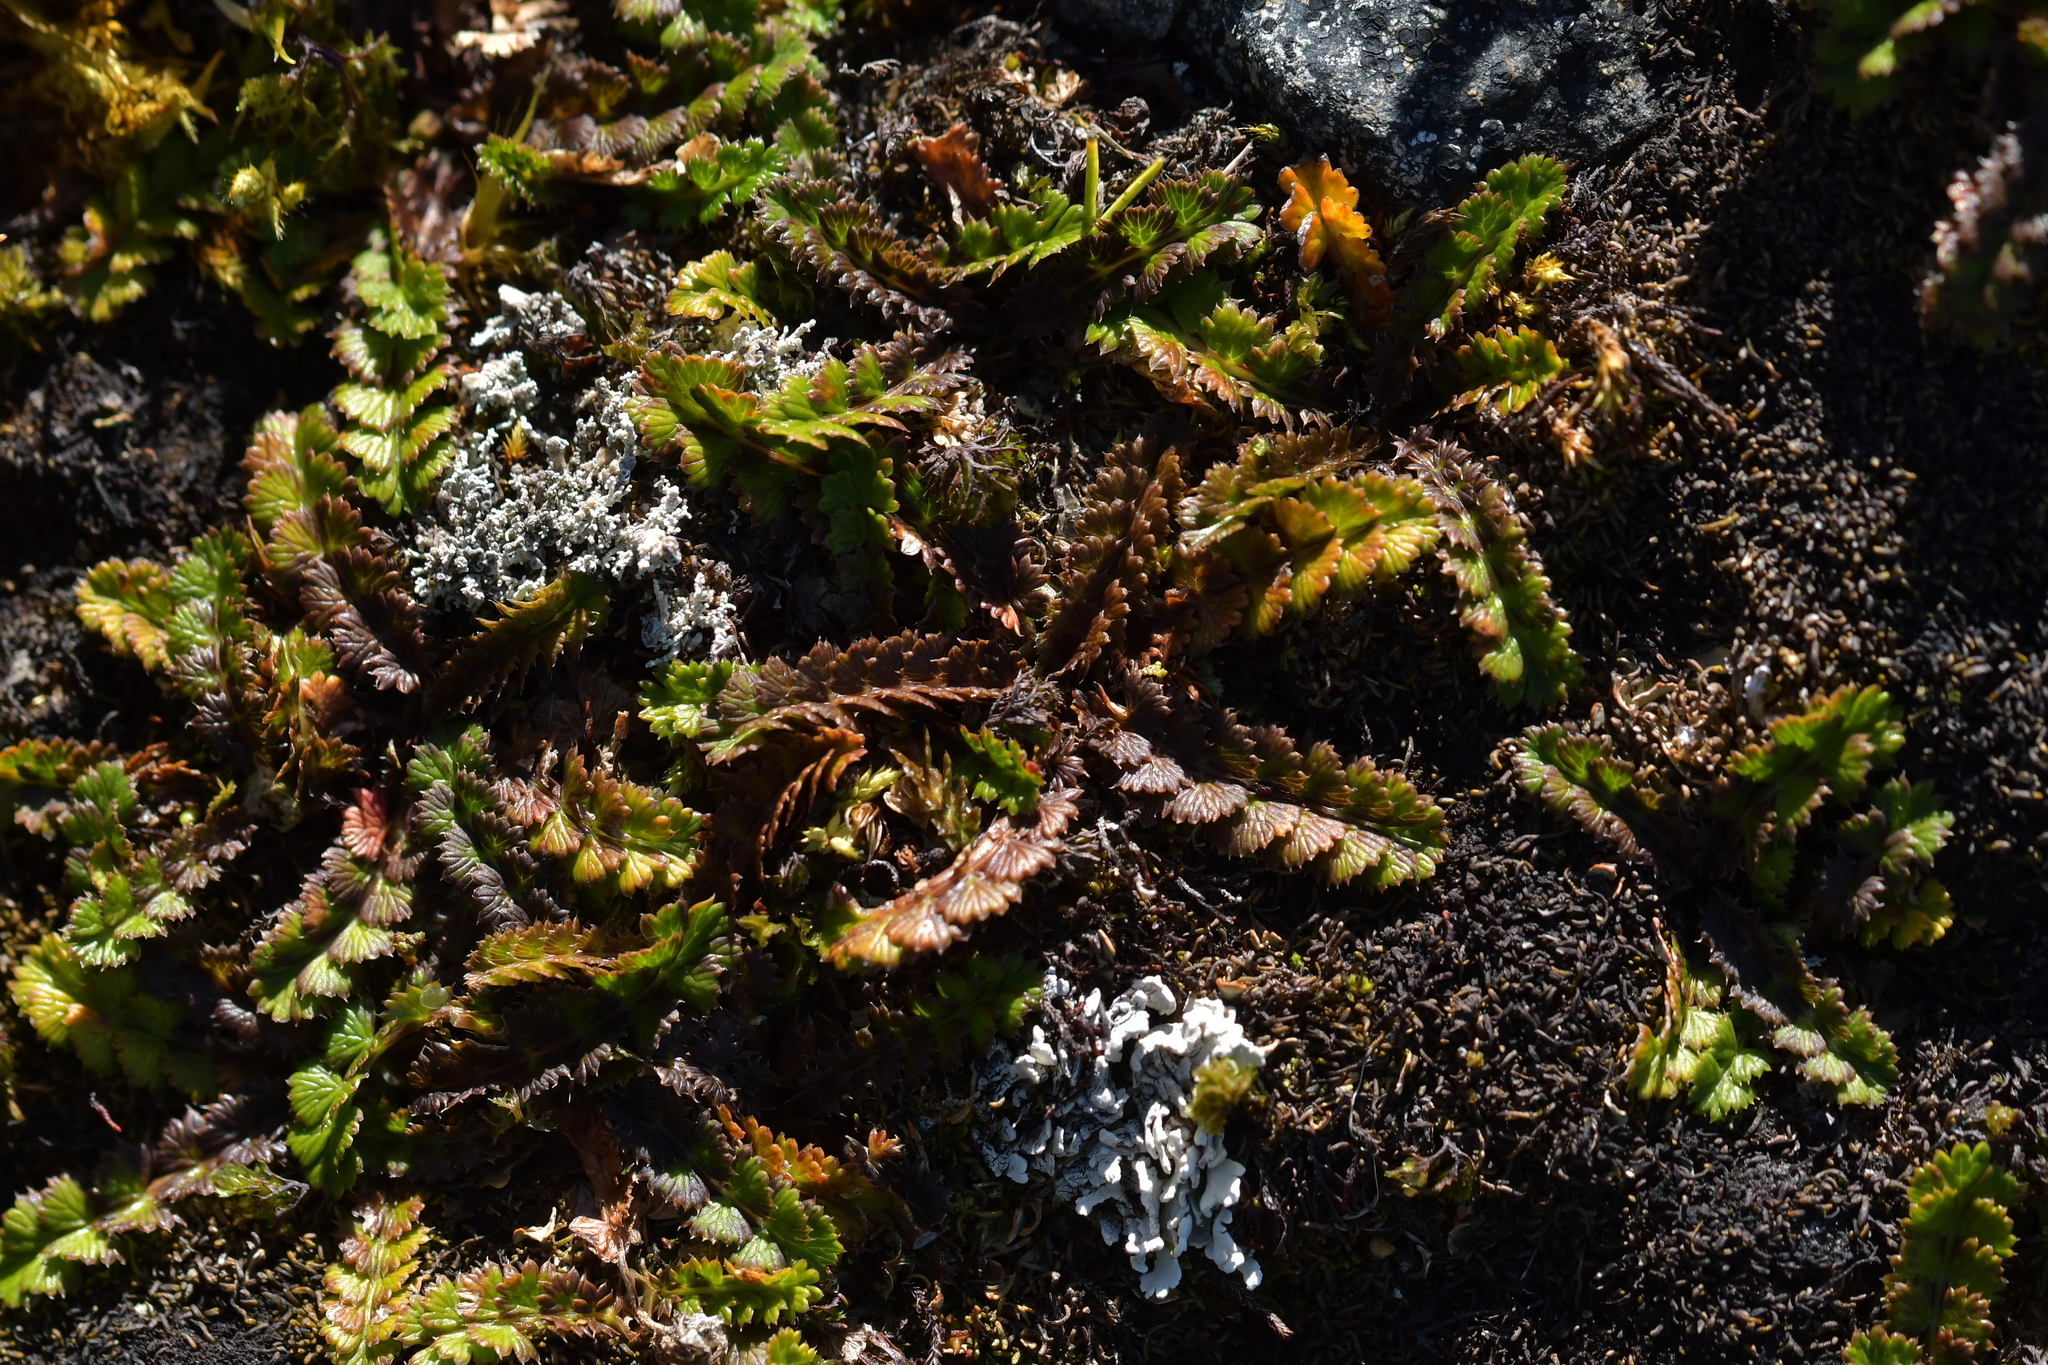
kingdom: Plantae
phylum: Tracheophyta
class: Magnoliopsida
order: Apiales
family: Apiaceae
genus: Anisotome
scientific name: Anisotome aromatica
